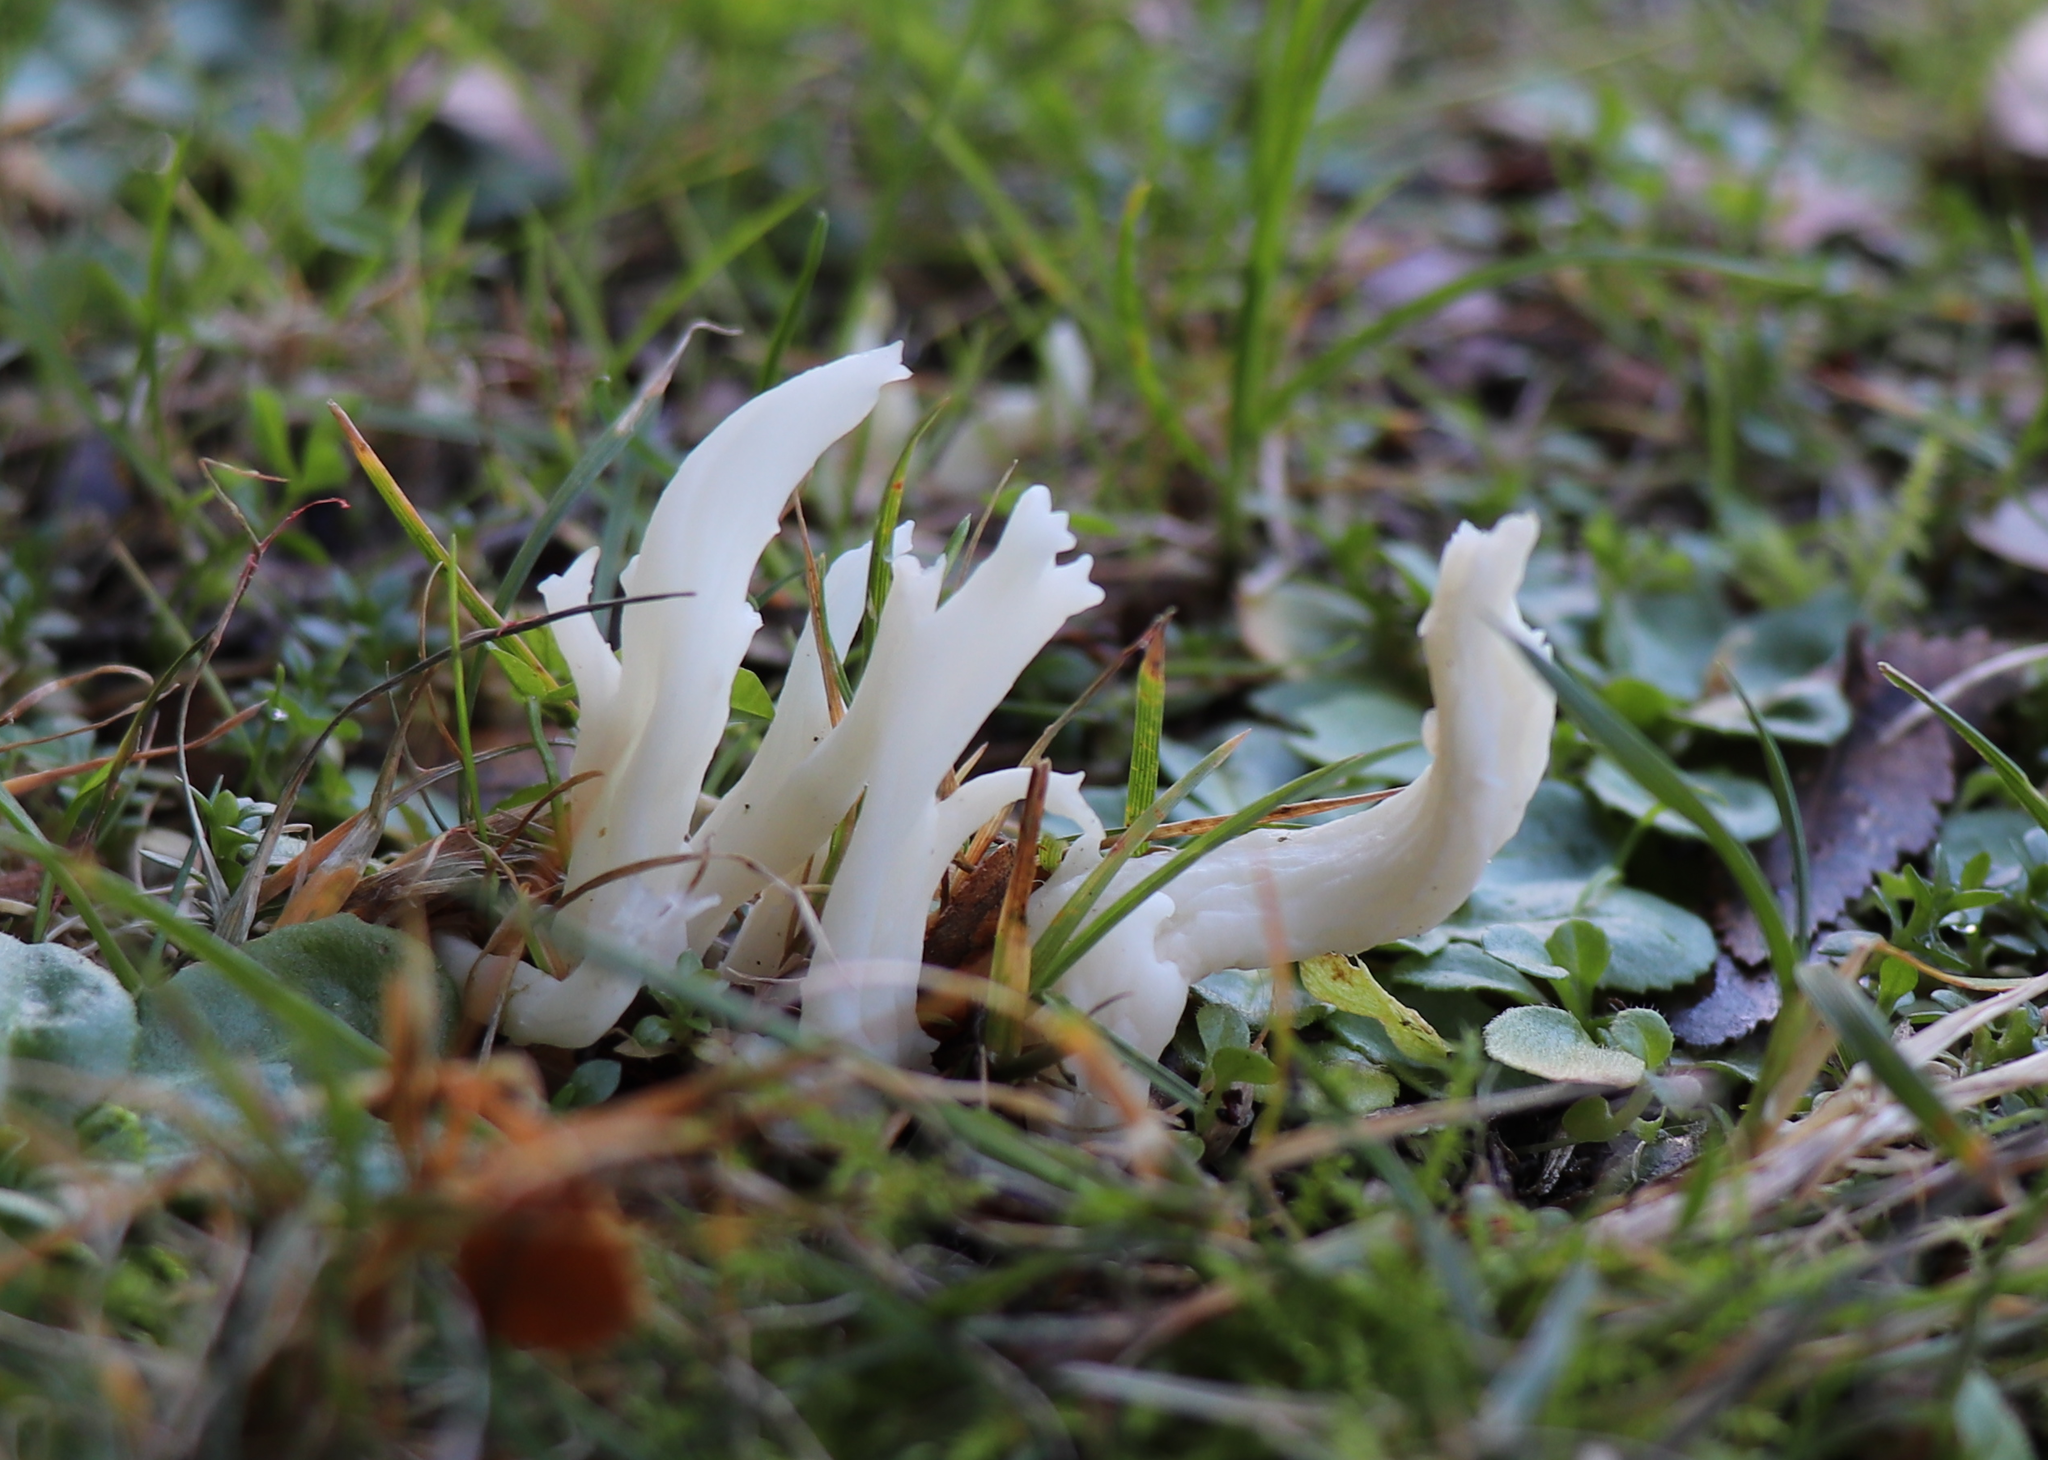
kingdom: Fungi
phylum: Basidiomycota
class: Agaricomycetes
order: Cantharellales
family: Hydnaceae
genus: Clavulina
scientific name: Clavulina rugosa
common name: Wrinkled club
